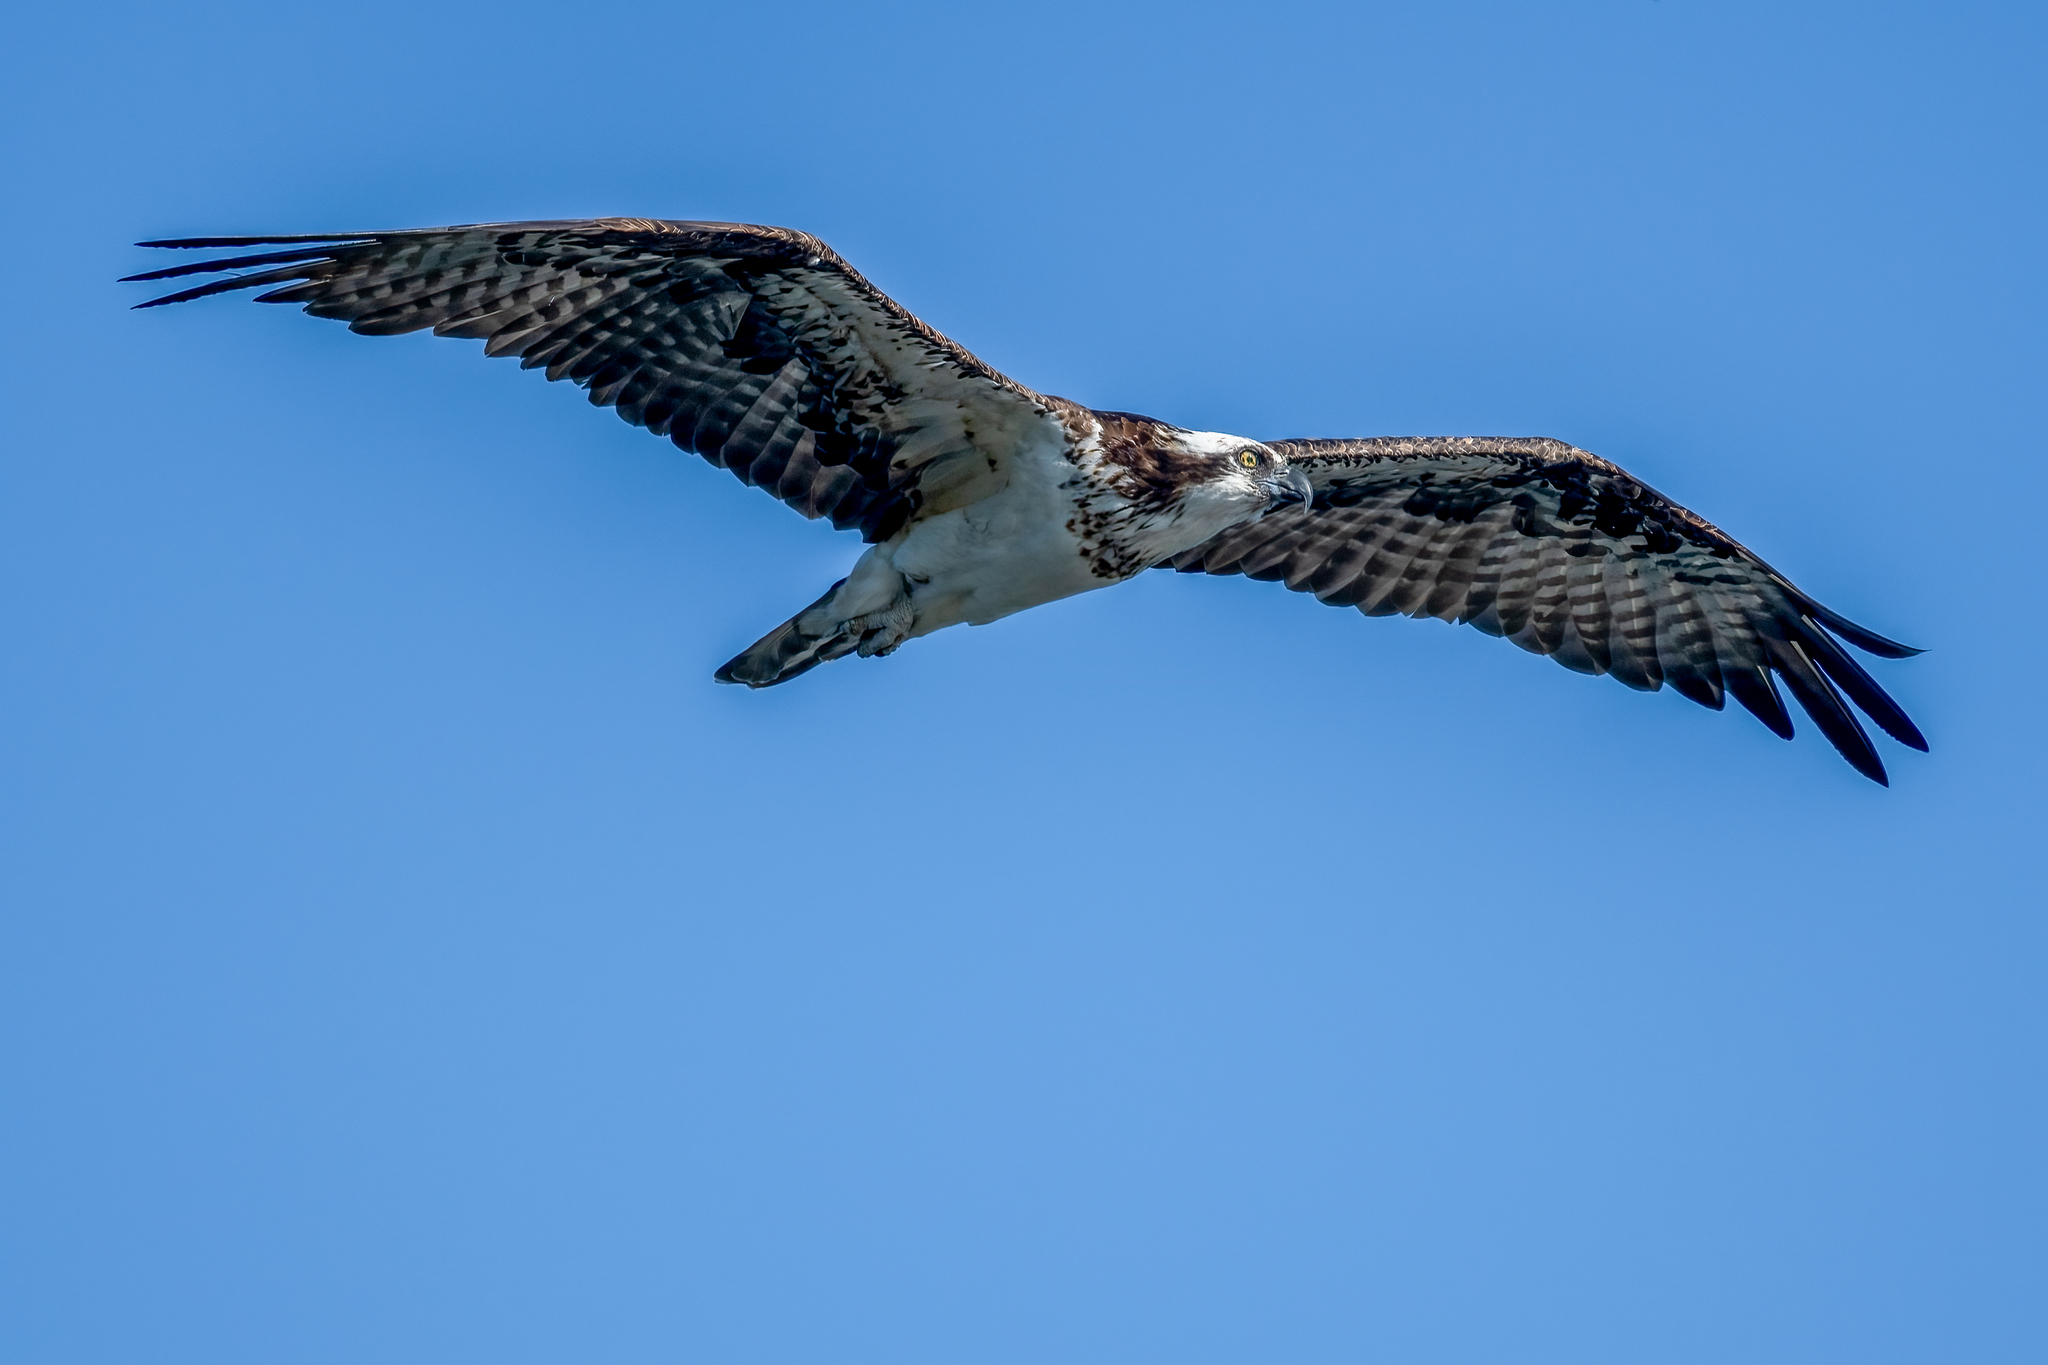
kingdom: Animalia
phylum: Chordata
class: Aves
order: Accipitriformes
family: Pandionidae
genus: Pandion
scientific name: Pandion haliaetus
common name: Osprey
